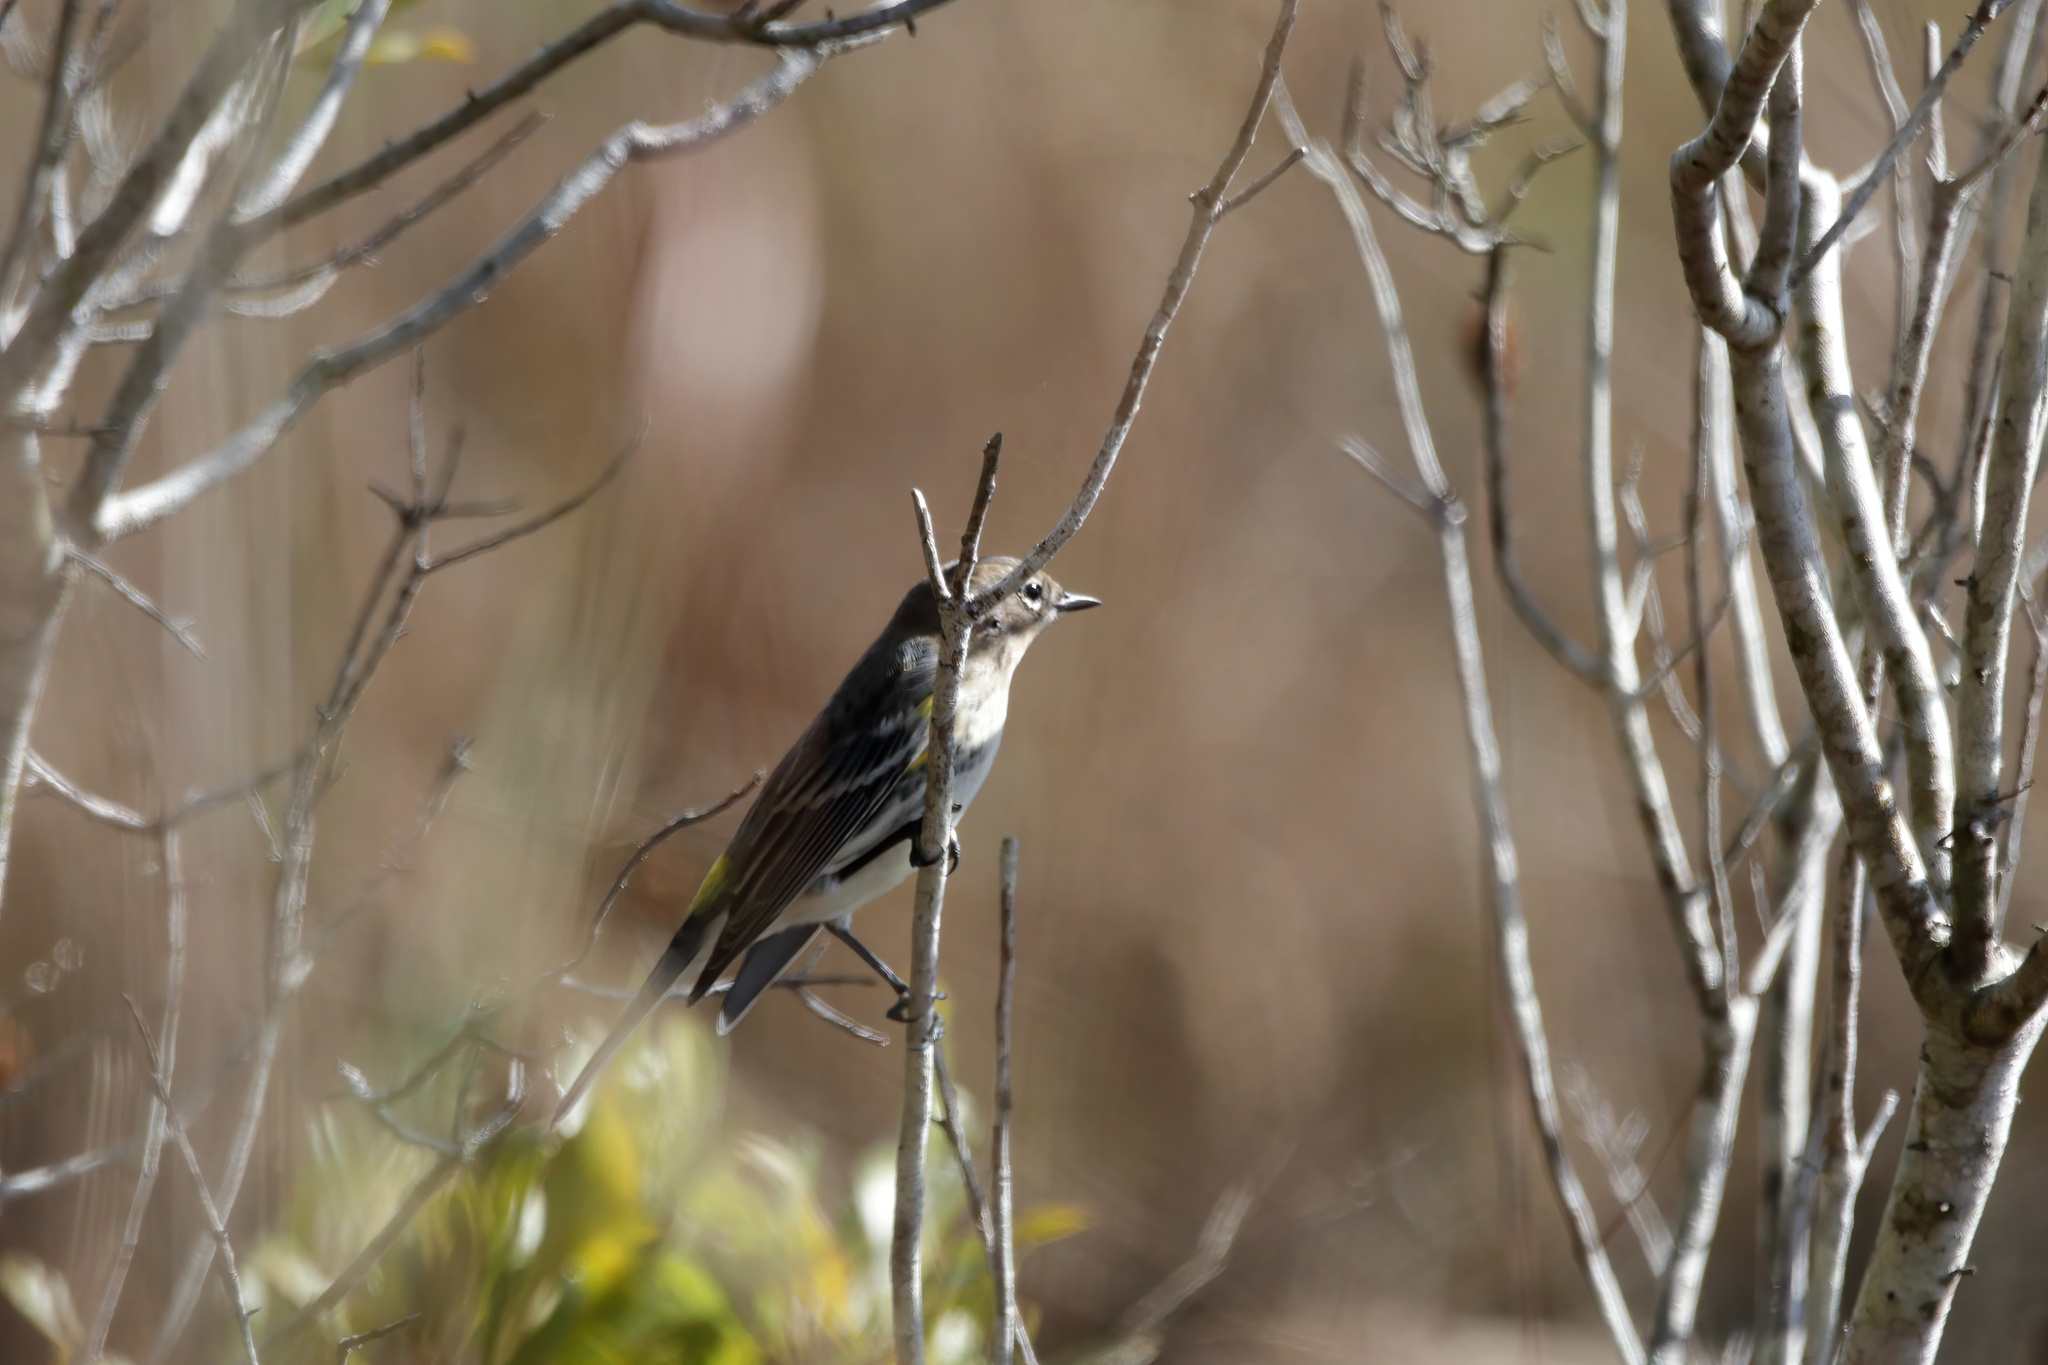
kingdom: Animalia
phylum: Chordata
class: Aves
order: Passeriformes
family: Parulidae
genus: Setophaga
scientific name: Setophaga coronata
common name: Myrtle warbler
